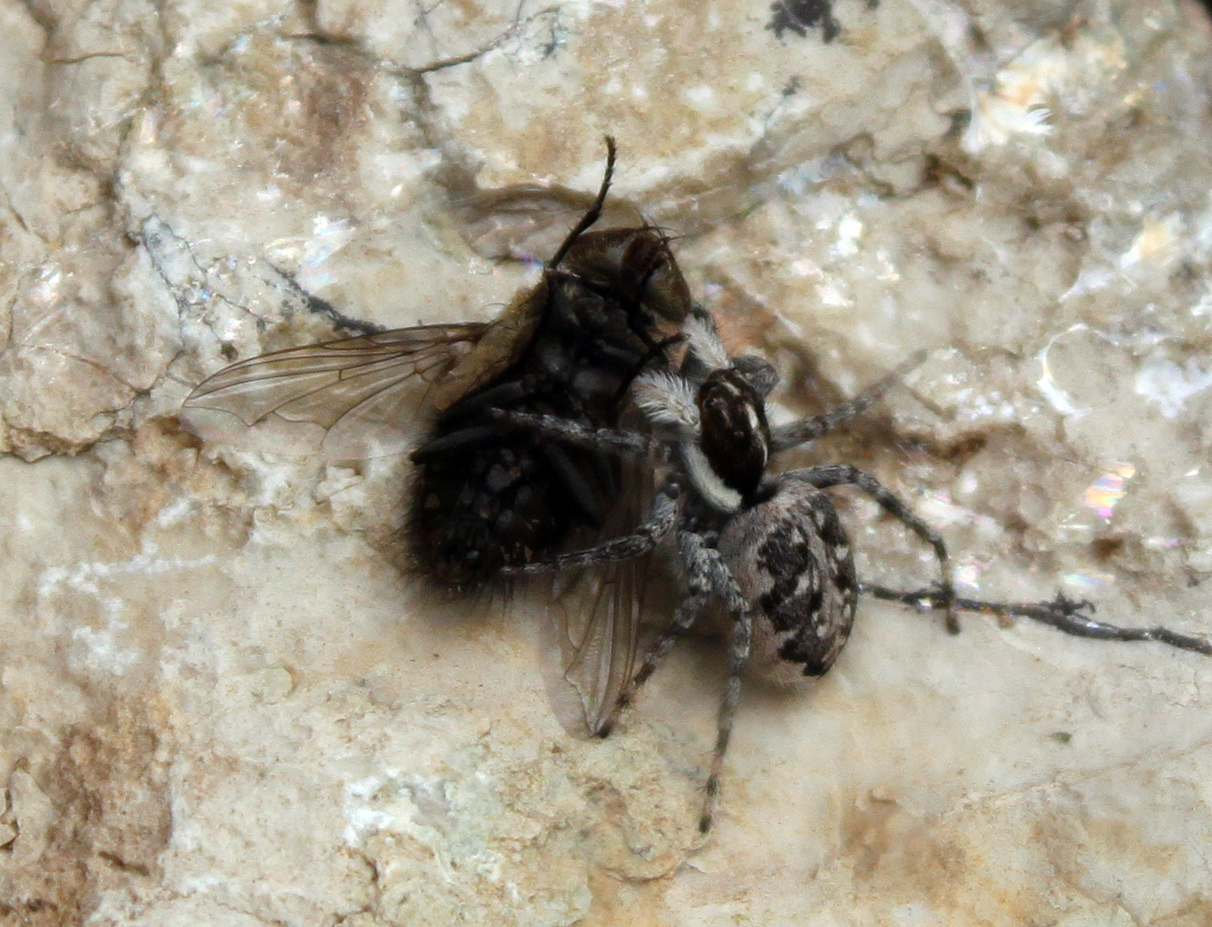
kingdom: Animalia
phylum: Arthropoda
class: Arachnida
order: Araneae
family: Salticidae
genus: Menemerus
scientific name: Menemerus semilimbatus
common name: Jumping spider
